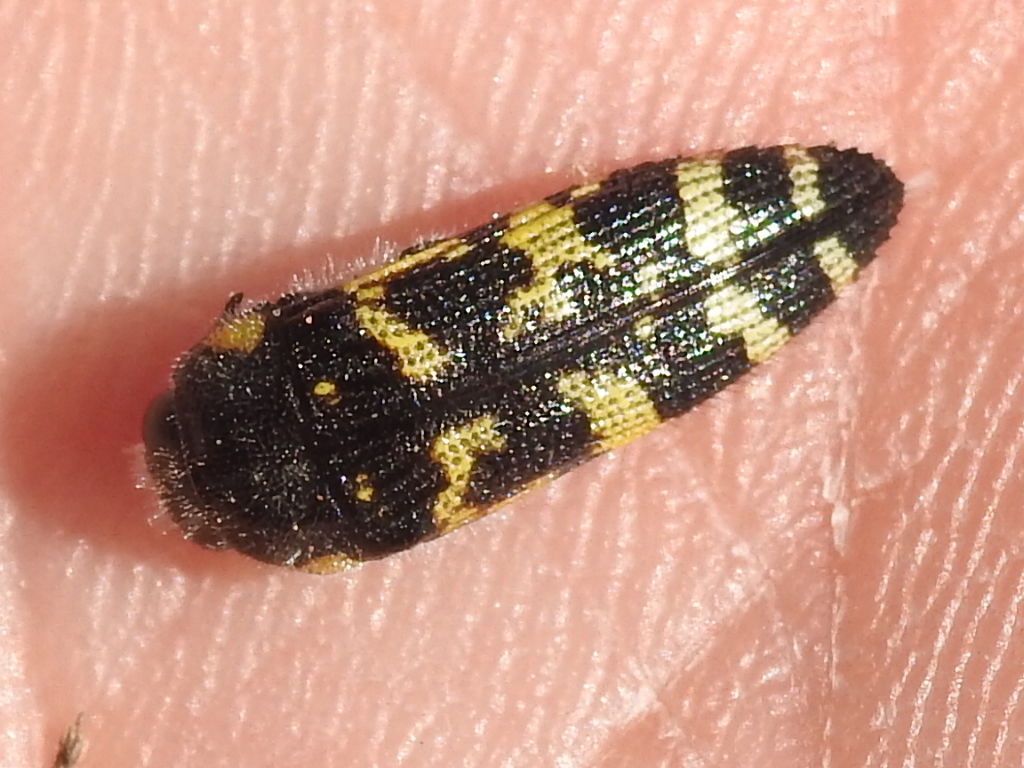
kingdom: Animalia
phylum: Arthropoda
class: Insecta
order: Coleoptera
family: Buprestidae
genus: Acmaeodera
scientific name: Acmaeodera macra
